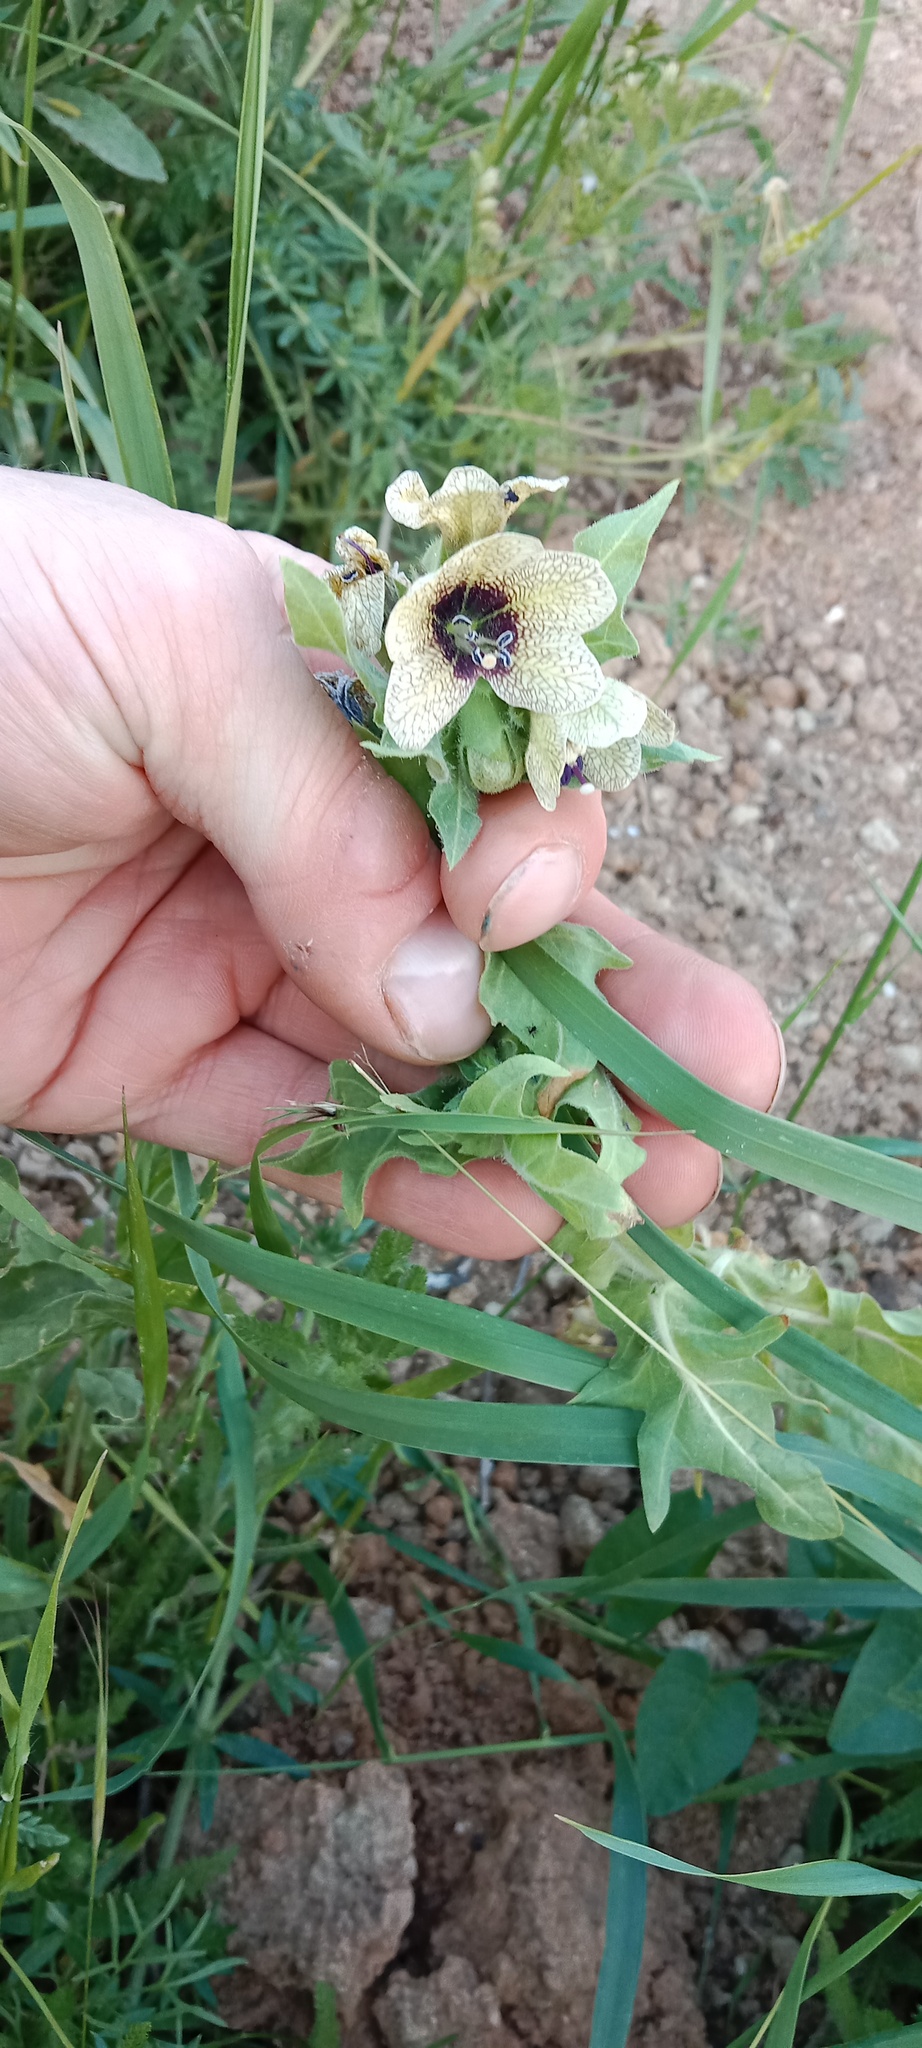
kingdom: Plantae
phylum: Tracheophyta
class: Magnoliopsida
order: Solanales
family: Solanaceae
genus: Hyoscyamus
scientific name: Hyoscyamus niger
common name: Henbane
